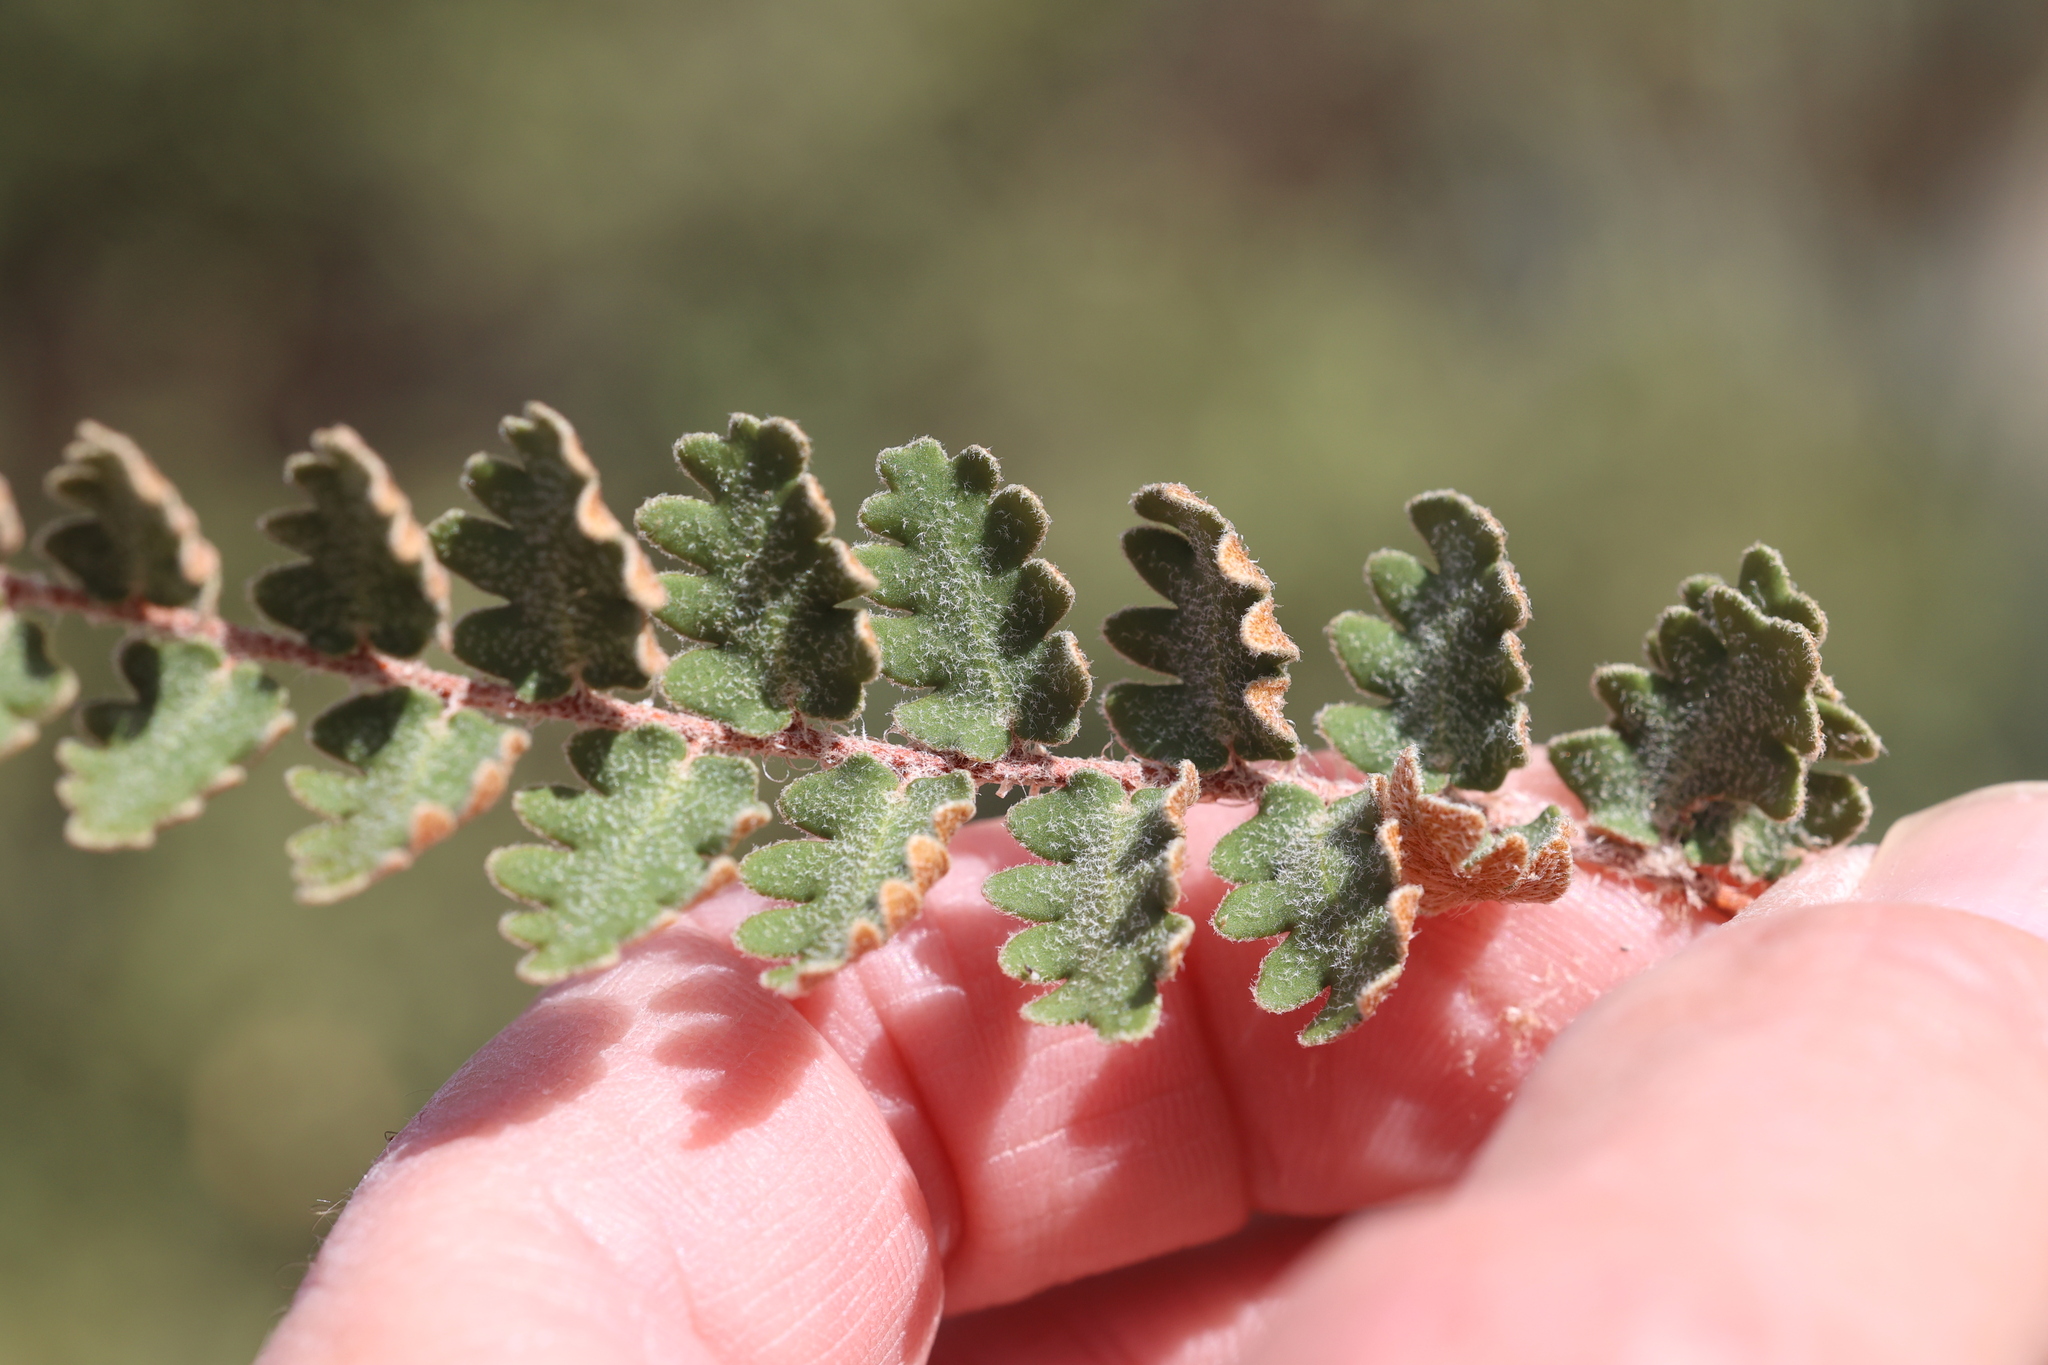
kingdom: Plantae
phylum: Tracheophyta
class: Polypodiopsida
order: Polypodiales
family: Pteridaceae
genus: Astrolepis
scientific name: Astrolepis sinuata
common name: Wavy scaly cloakfern
